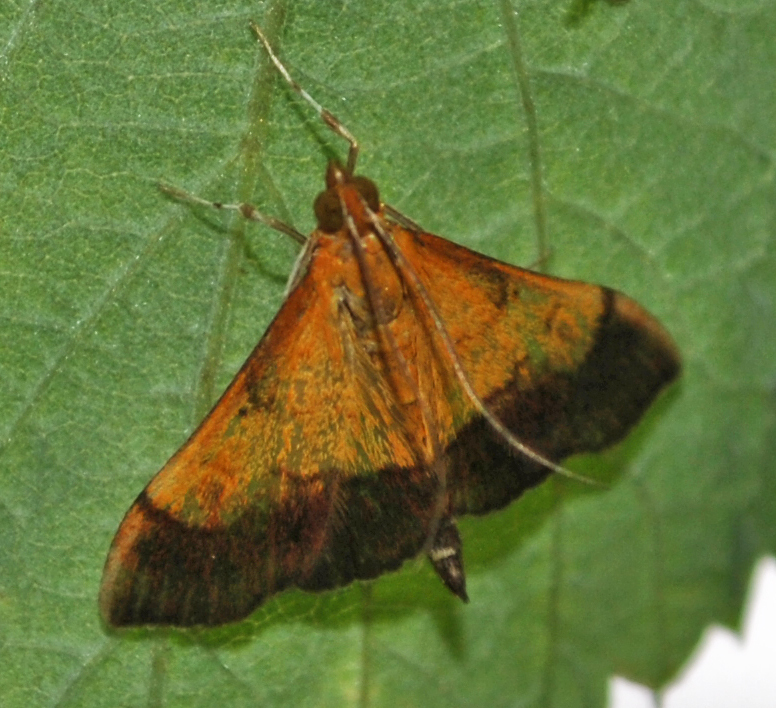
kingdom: Animalia
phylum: Arthropoda
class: Insecta
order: Lepidoptera
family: Crambidae
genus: Pyrausta
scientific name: Pyrausta bicoloralis
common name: Bicolored pyrausta moth
